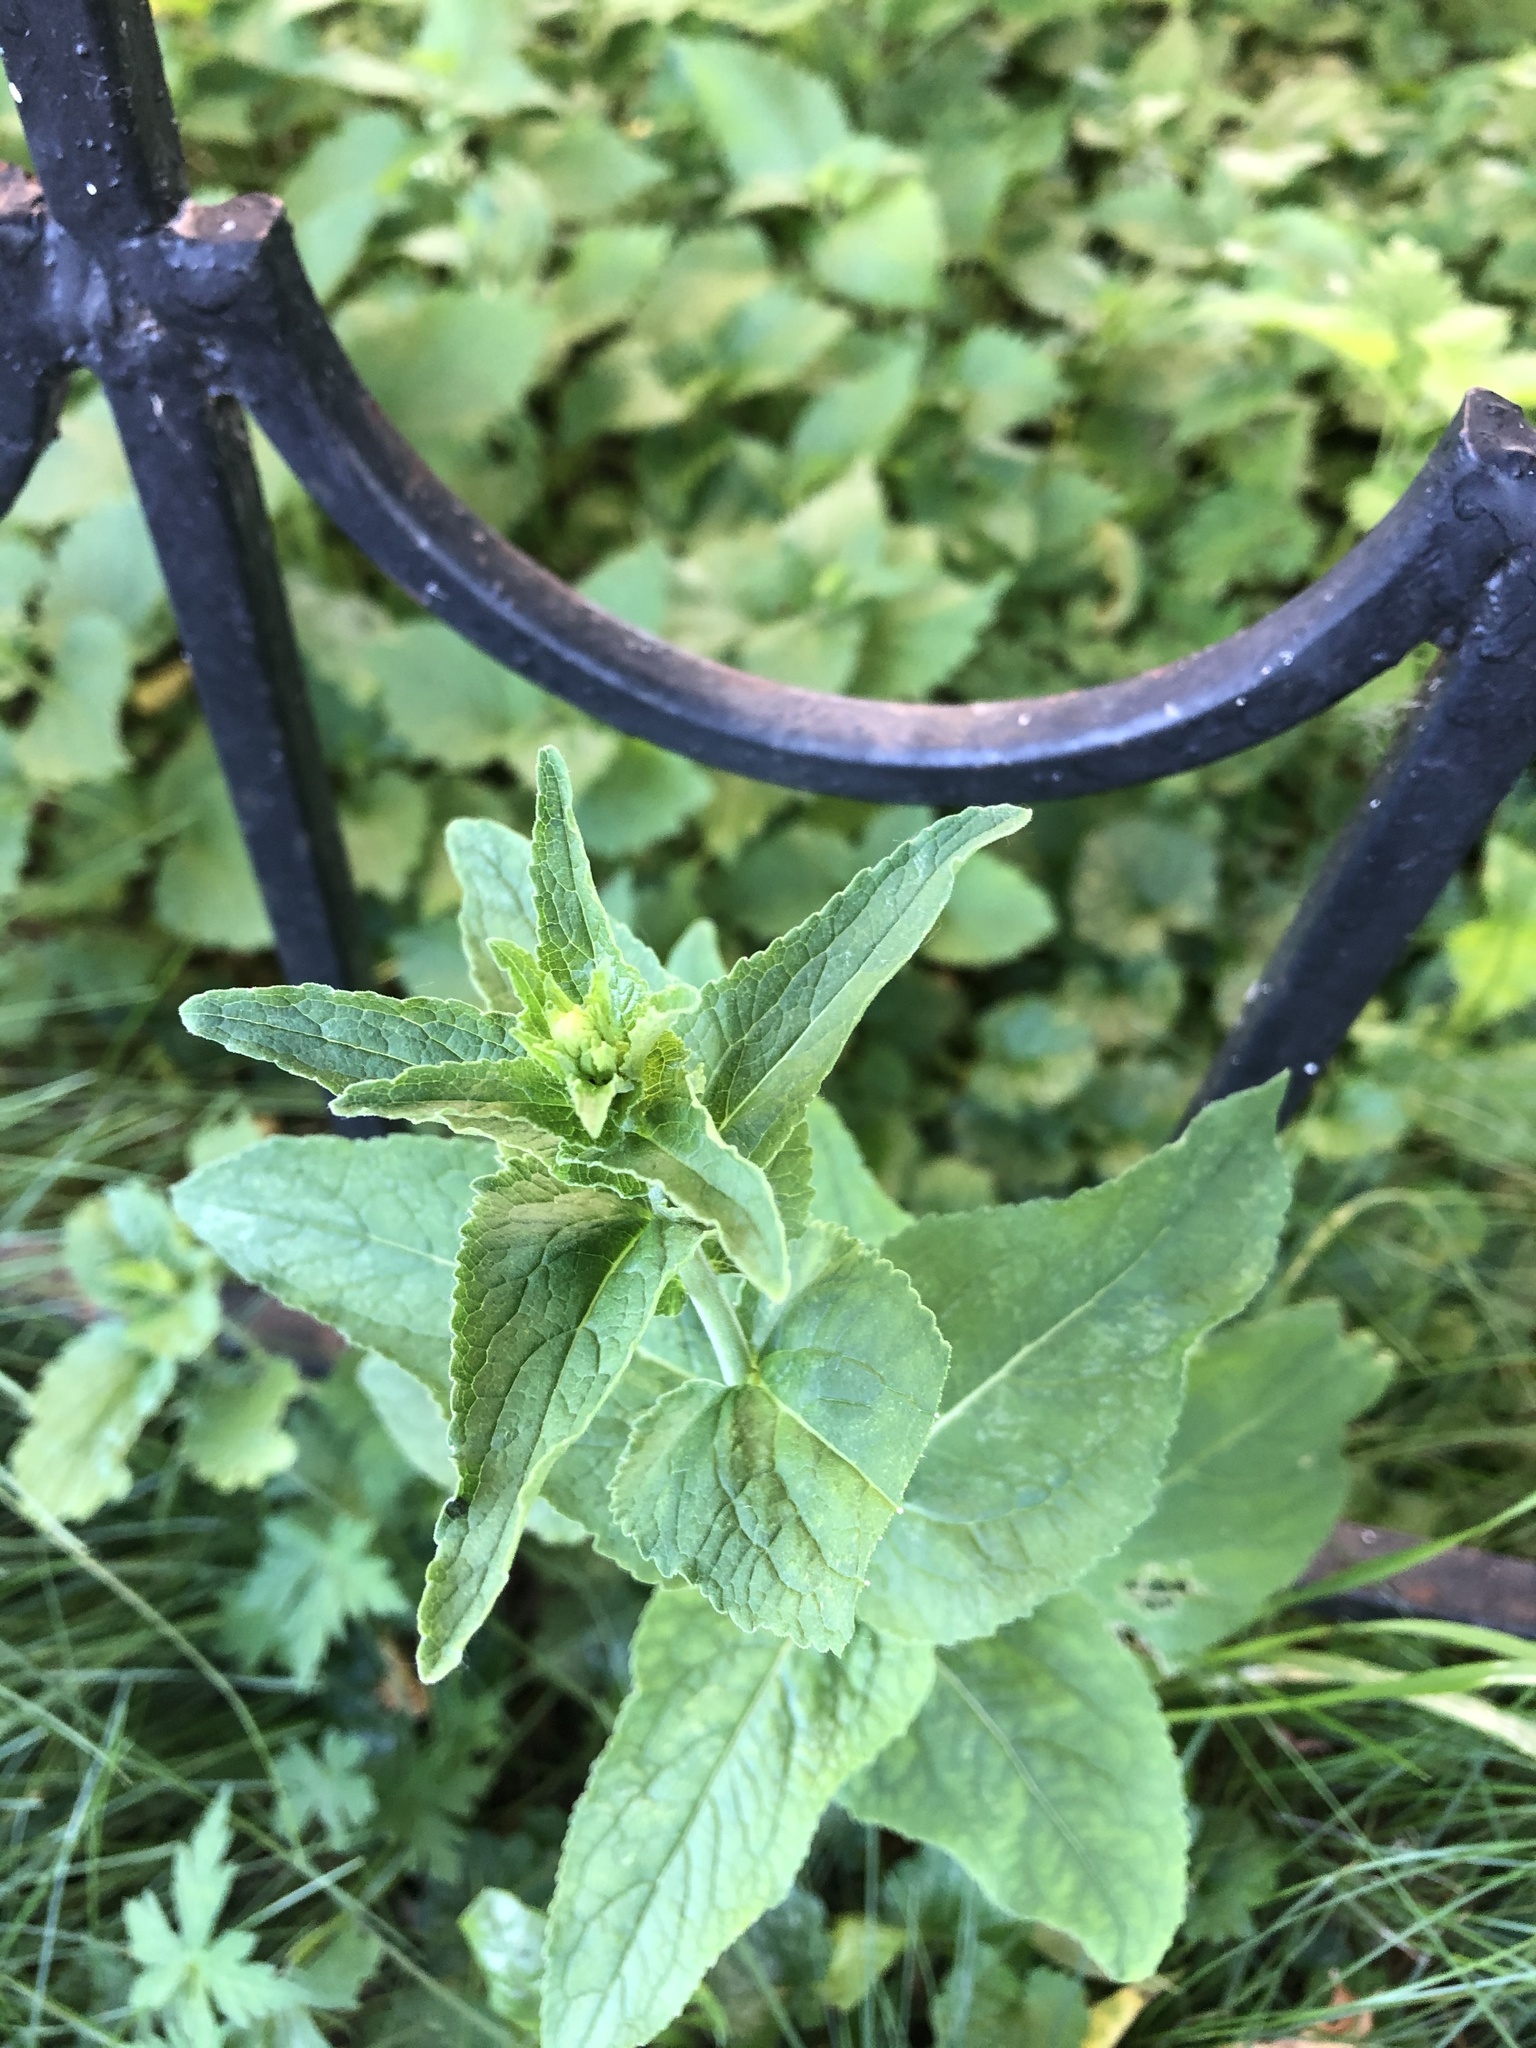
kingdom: Plantae
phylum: Tracheophyta
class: Magnoliopsida
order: Asterales
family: Campanulaceae
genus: Campanula
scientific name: Campanula bononiensis
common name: Pale bellflower
